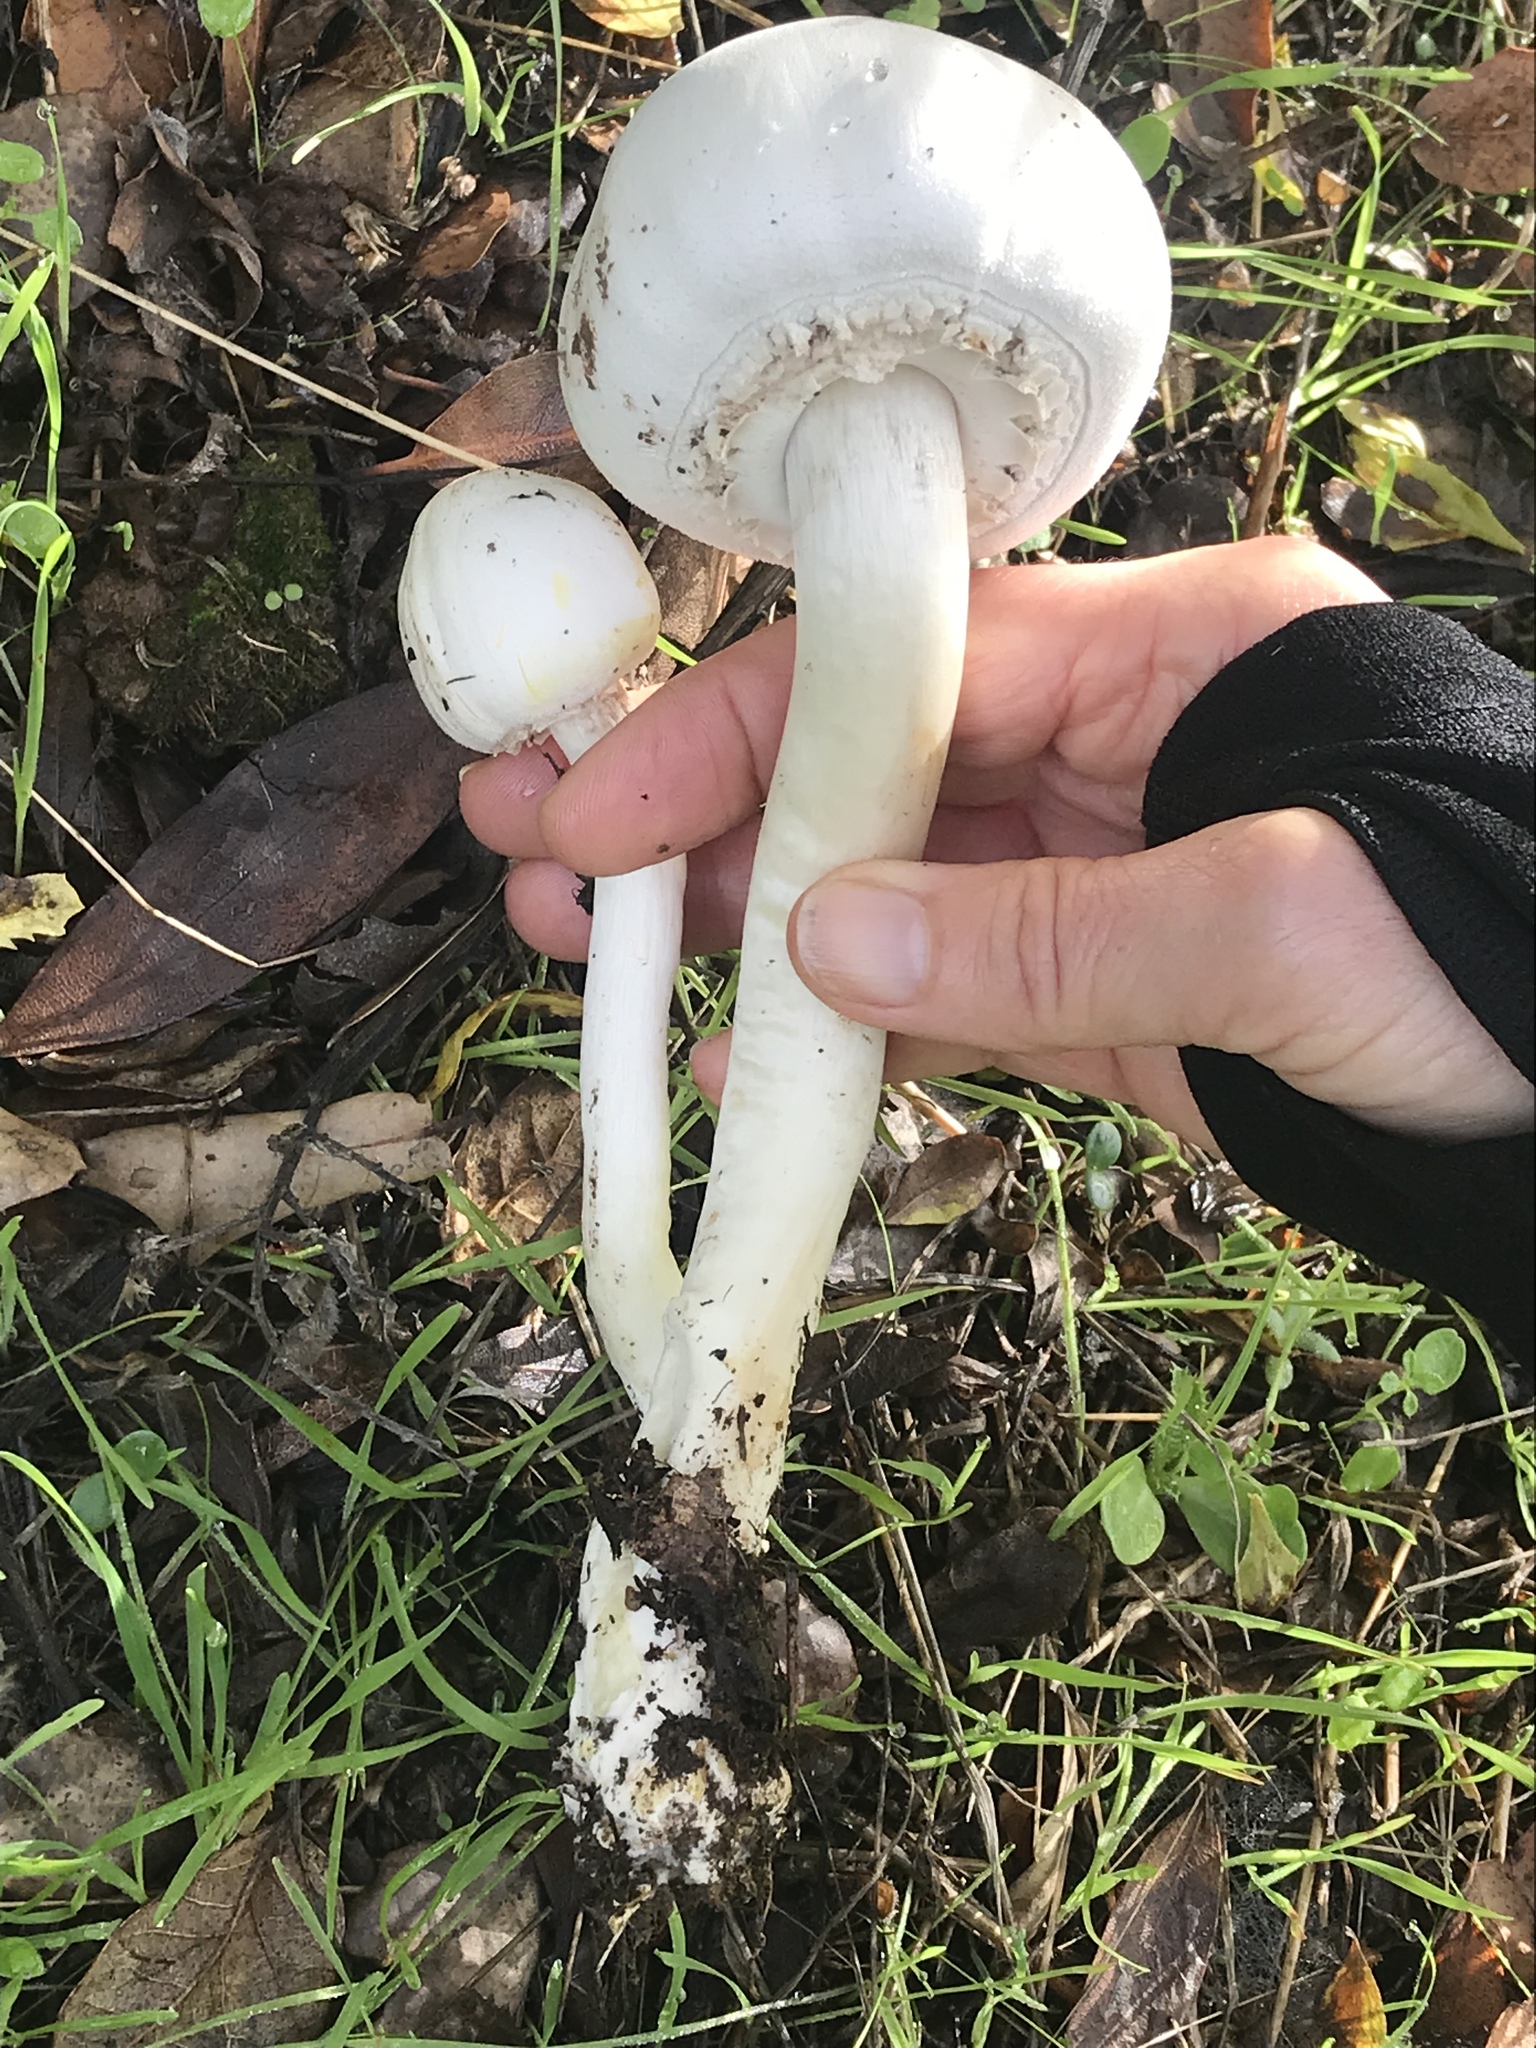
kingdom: Fungi
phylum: Basidiomycota
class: Agaricomycetes
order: Agaricales
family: Agaricaceae
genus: Agaricus
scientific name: Agaricus xanthodermus
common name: Yellow stainer
